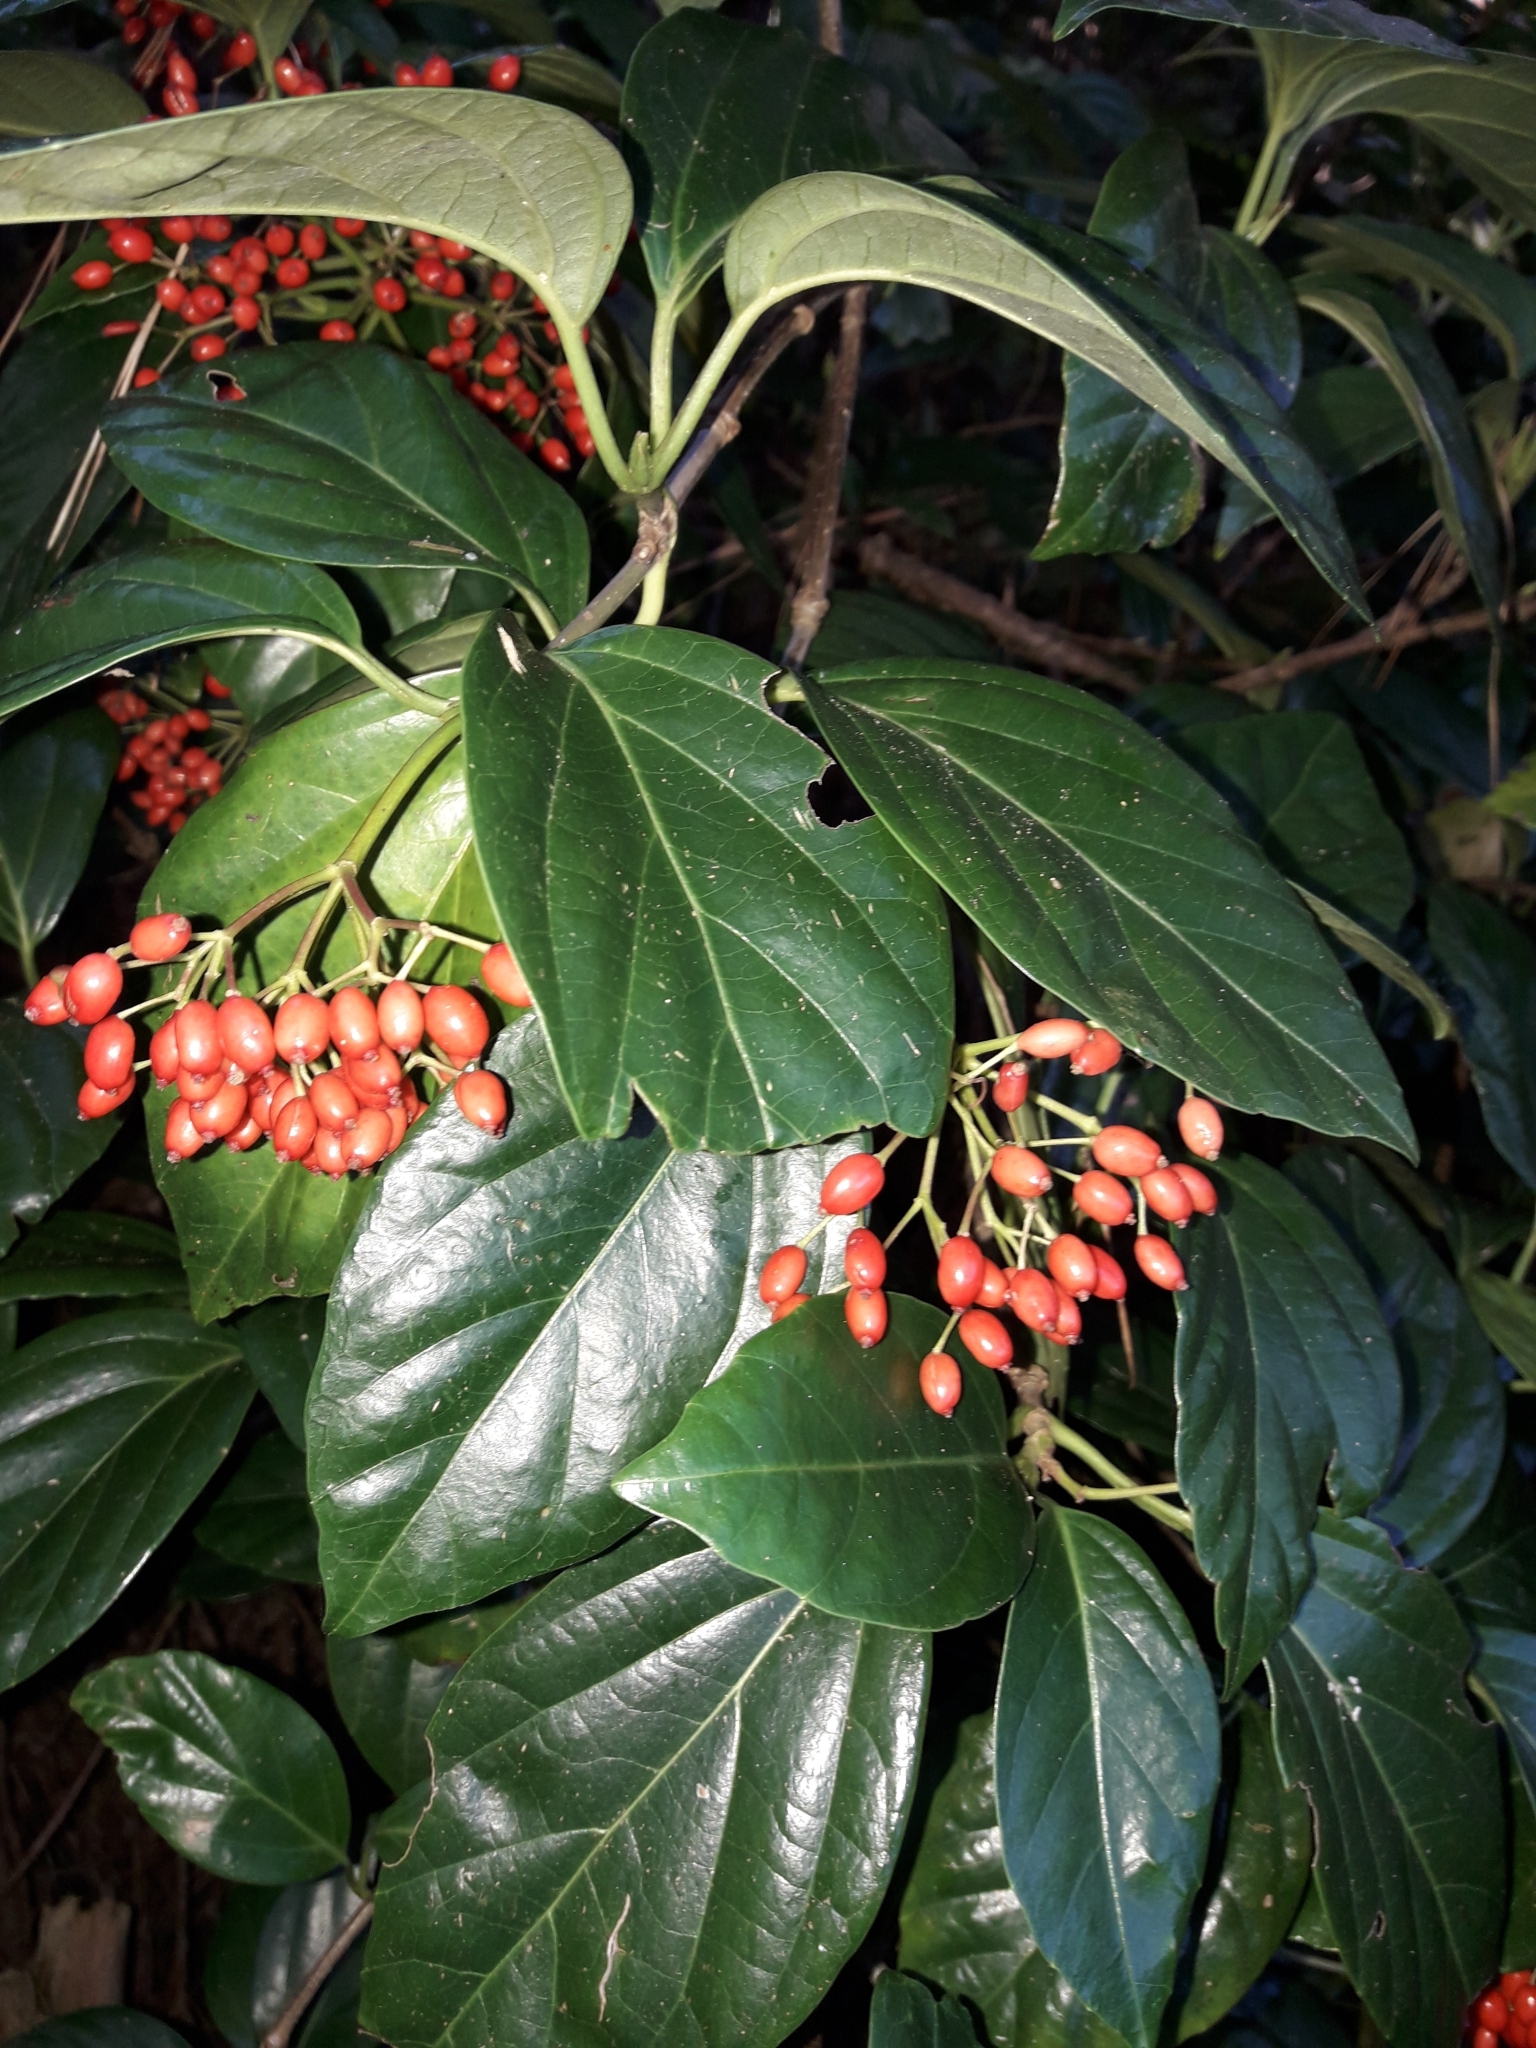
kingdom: Plantae
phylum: Tracheophyta
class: Magnoliopsida
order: Dipsacales
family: Viburnaceae
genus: Viburnum
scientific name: Viburnum japonicum
